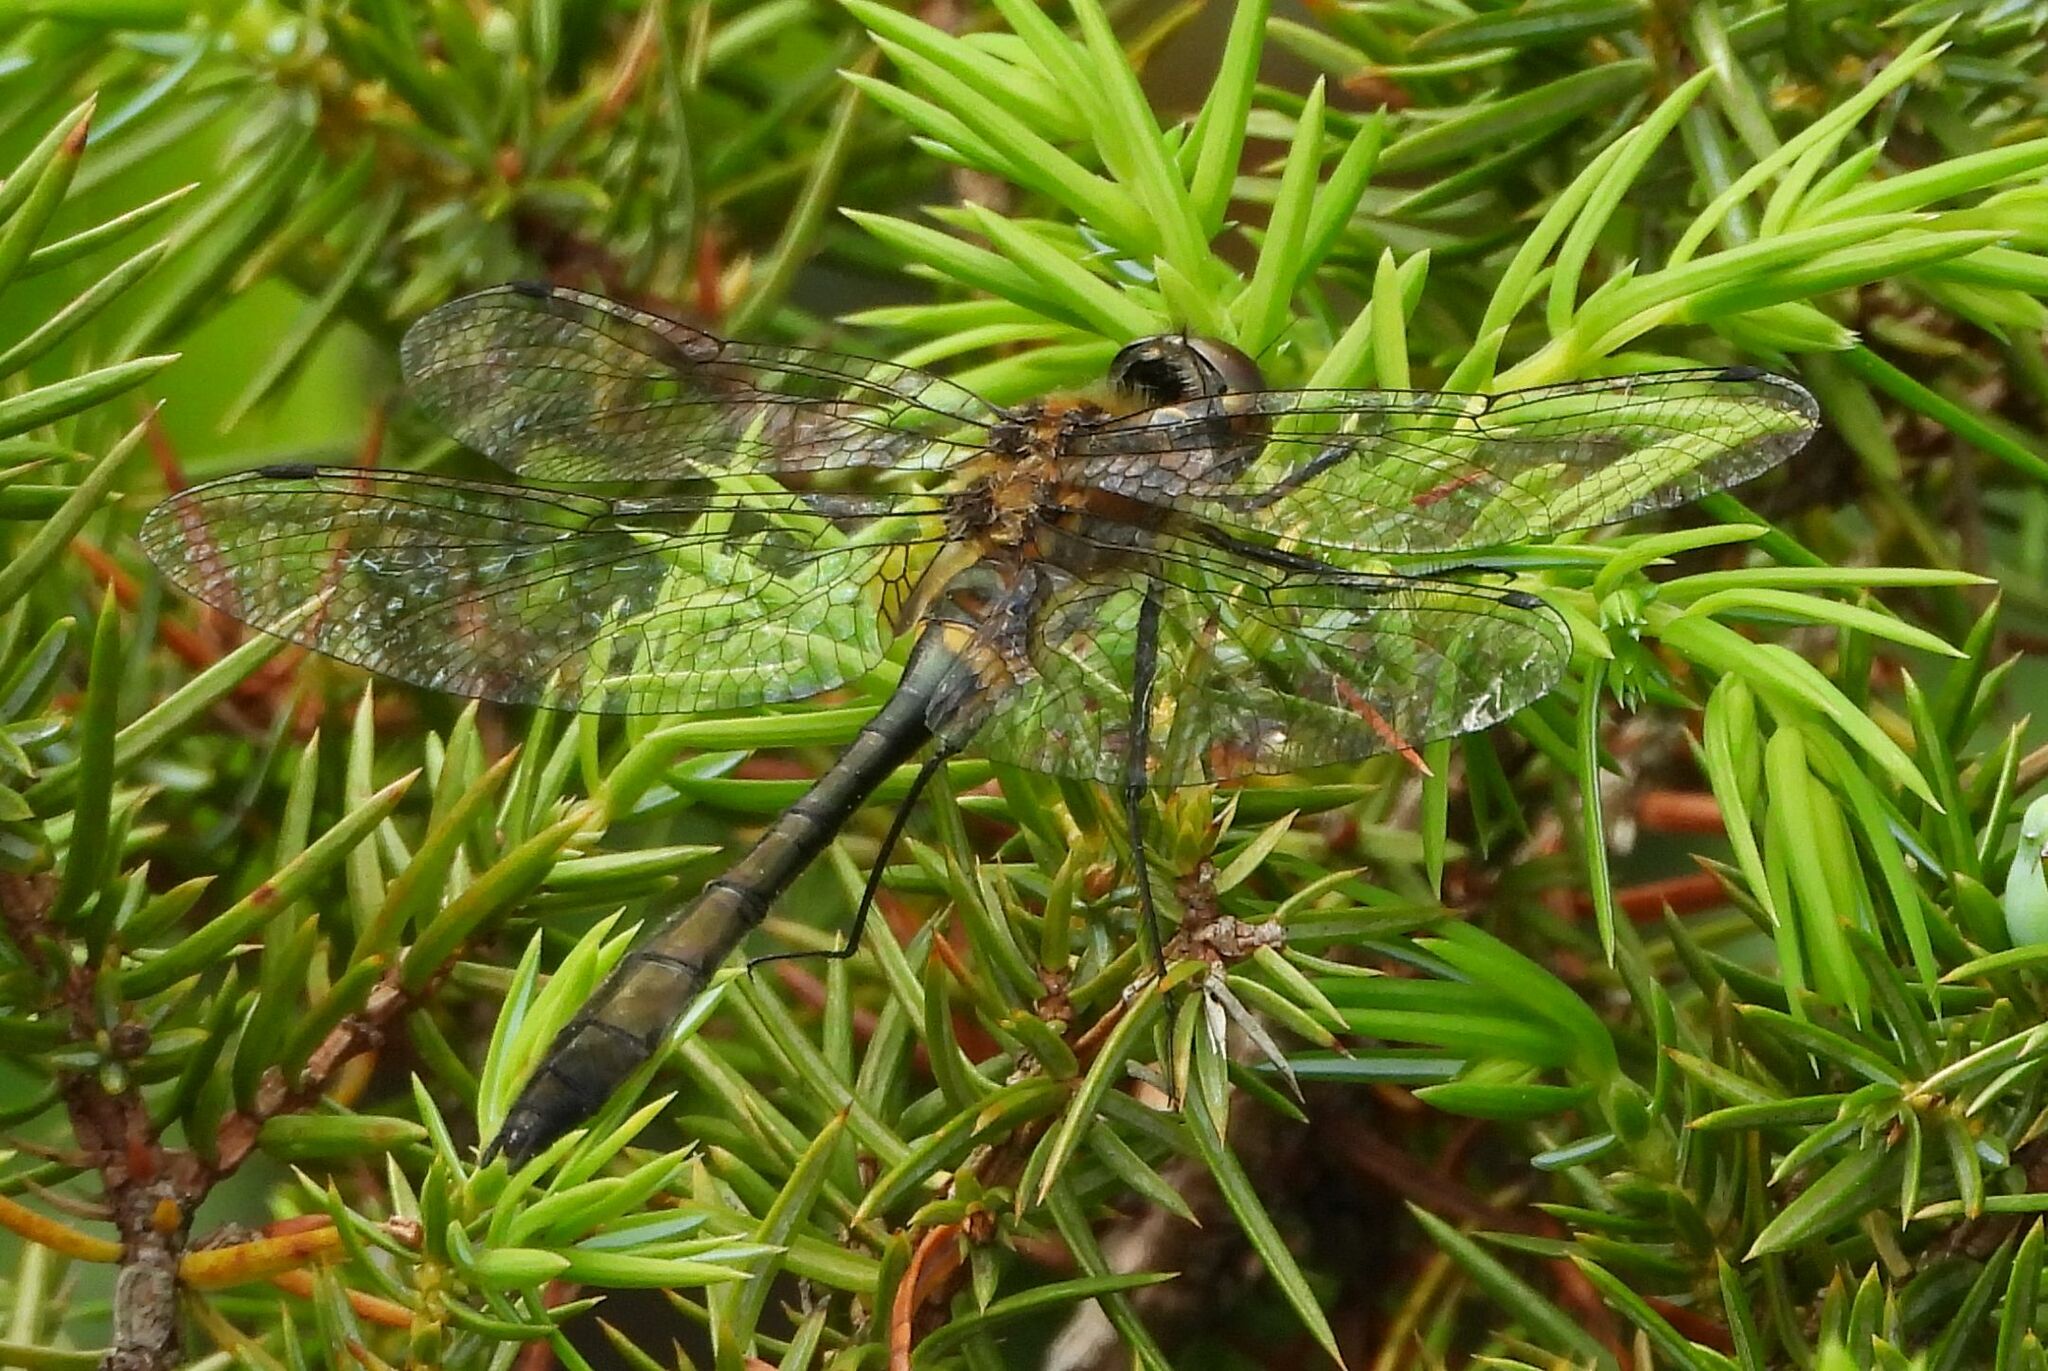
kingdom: Animalia
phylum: Arthropoda
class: Insecta
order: Odonata
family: Corduliidae
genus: Dorocordulia
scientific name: Dorocordulia libera
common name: Racket-tailed emerald
